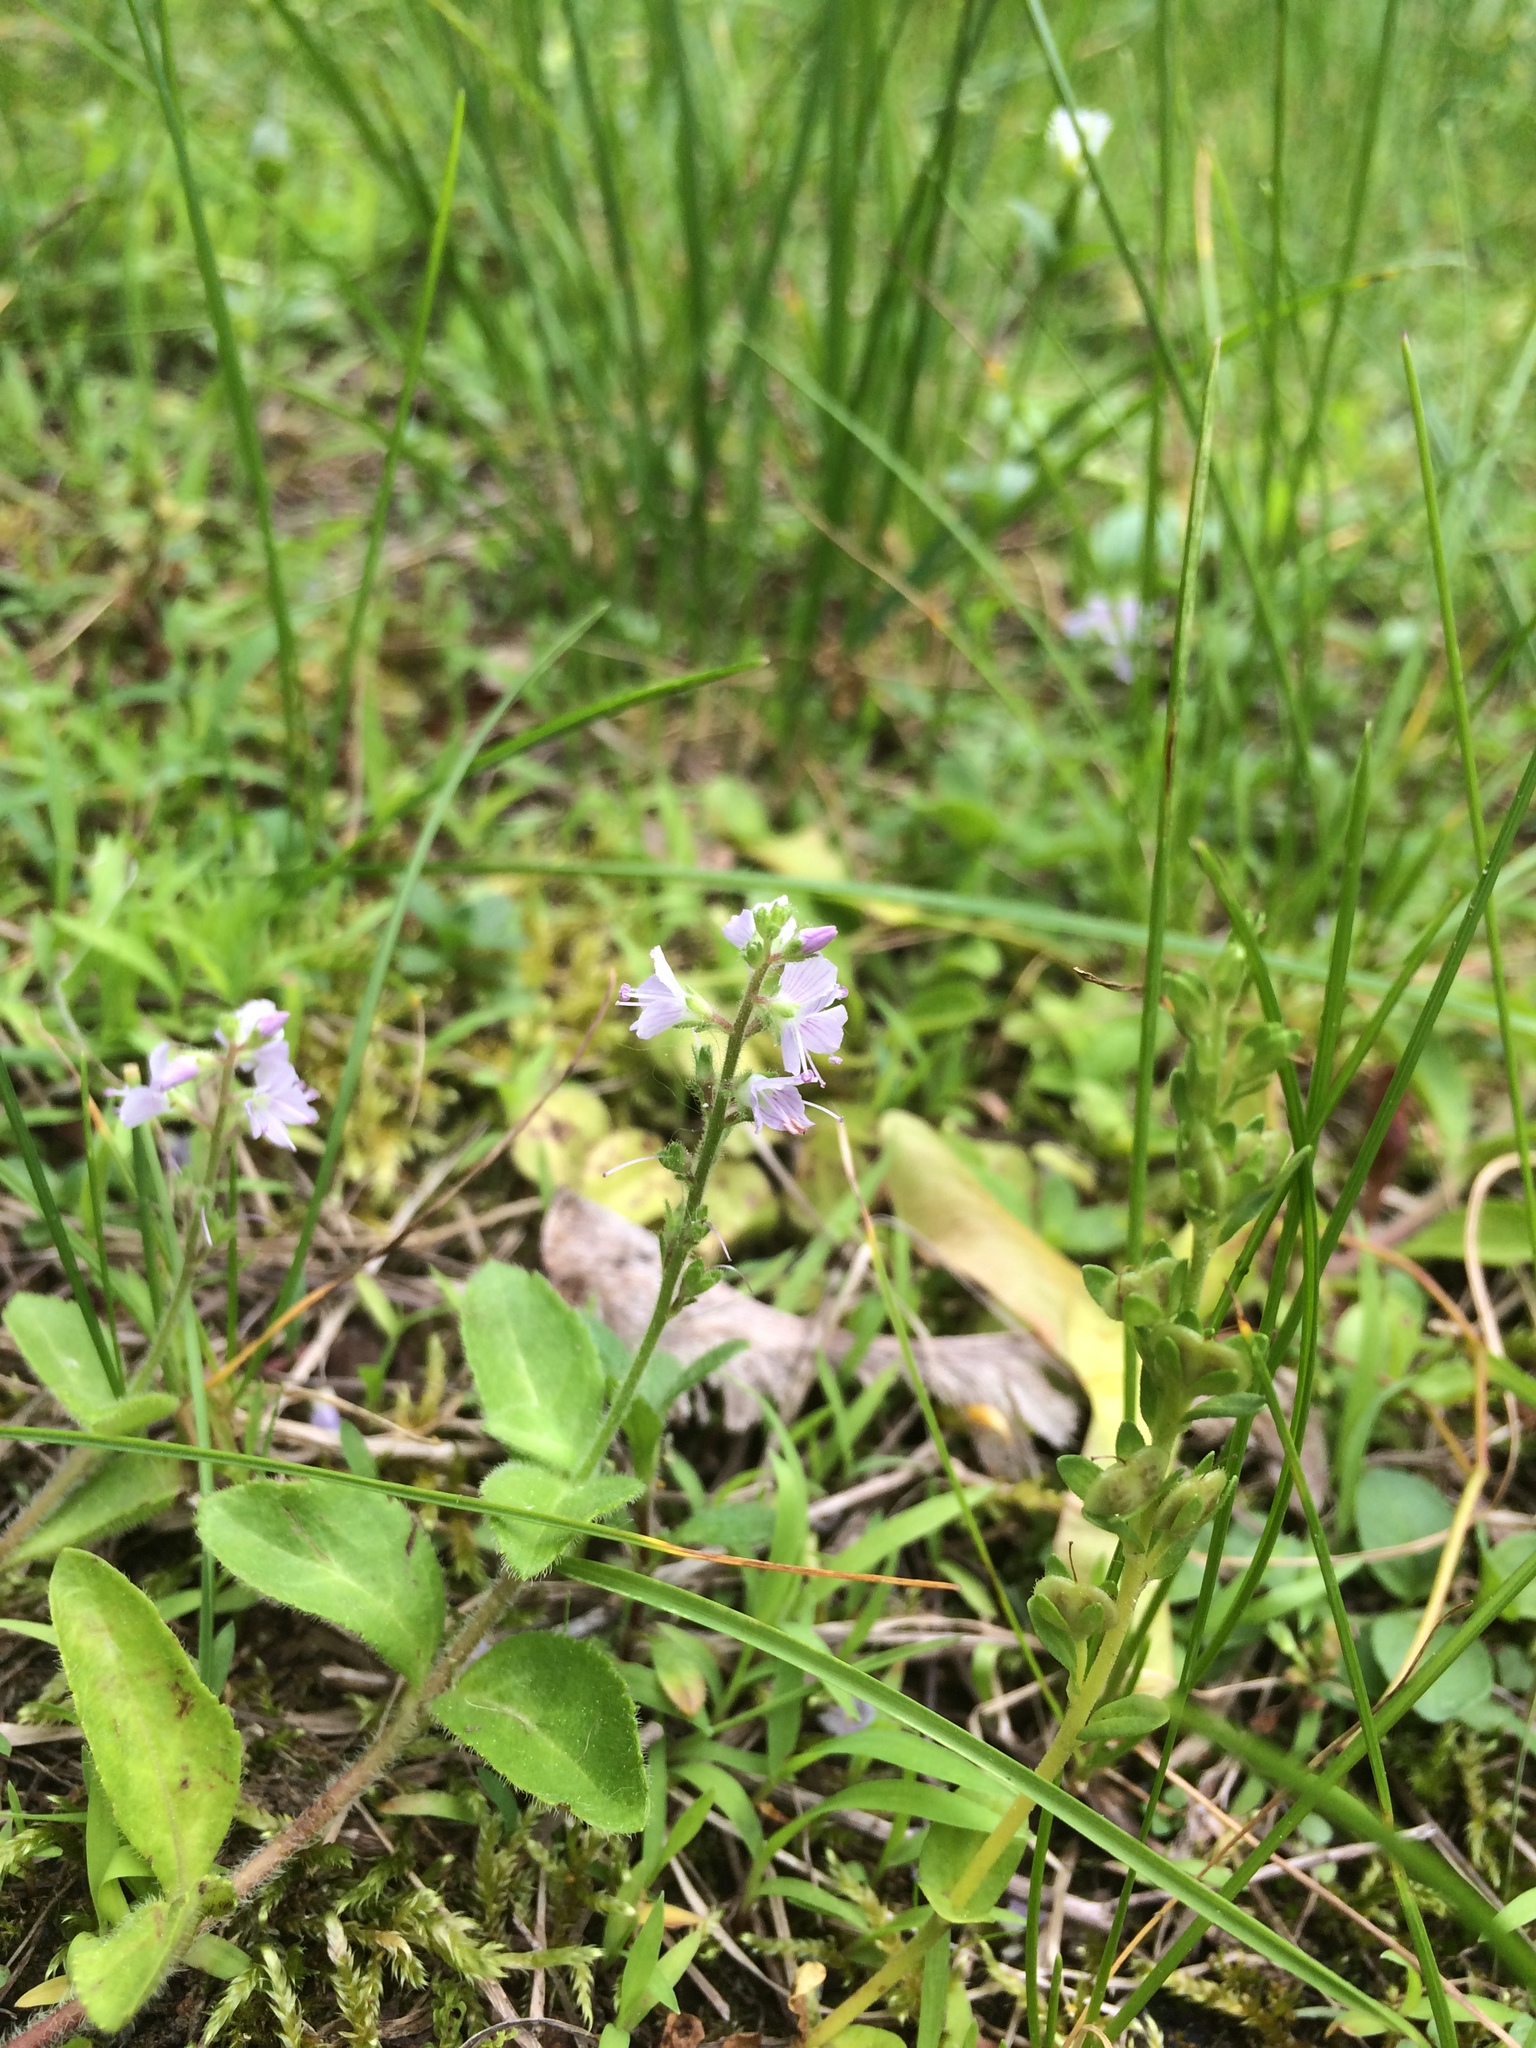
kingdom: Plantae
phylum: Tracheophyta
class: Magnoliopsida
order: Lamiales
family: Plantaginaceae
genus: Veronica
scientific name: Veronica officinalis
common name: Common speedwell
